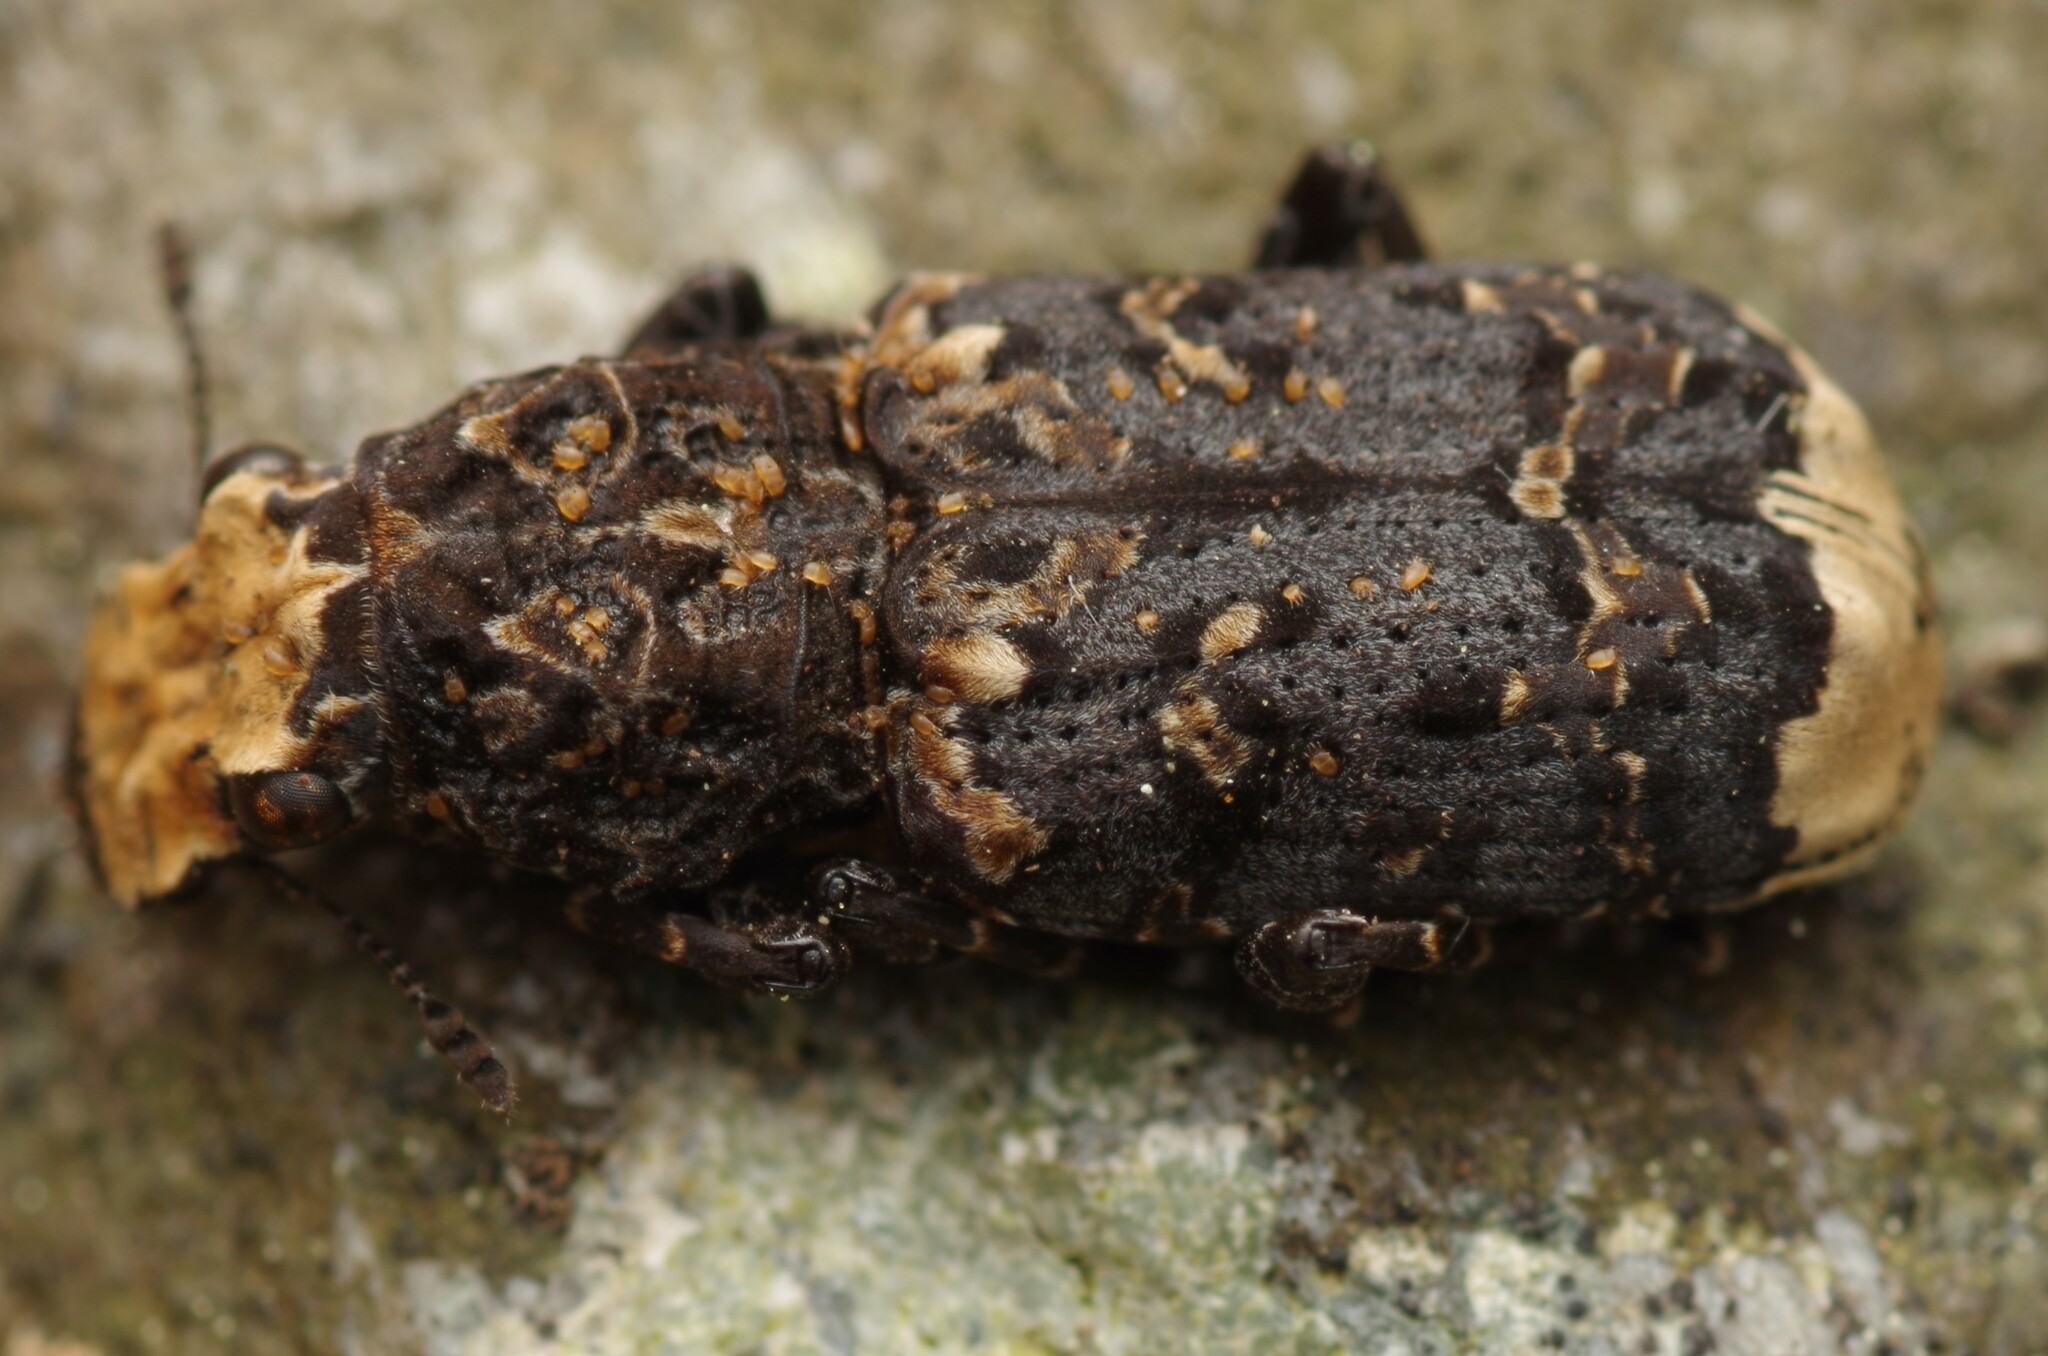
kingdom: Animalia
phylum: Arthropoda
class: Insecta
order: Coleoptera
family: Anthribidae
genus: Platyrhinus
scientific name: Platyrhinus resinosus
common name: Cramp-ball fungus weevil
